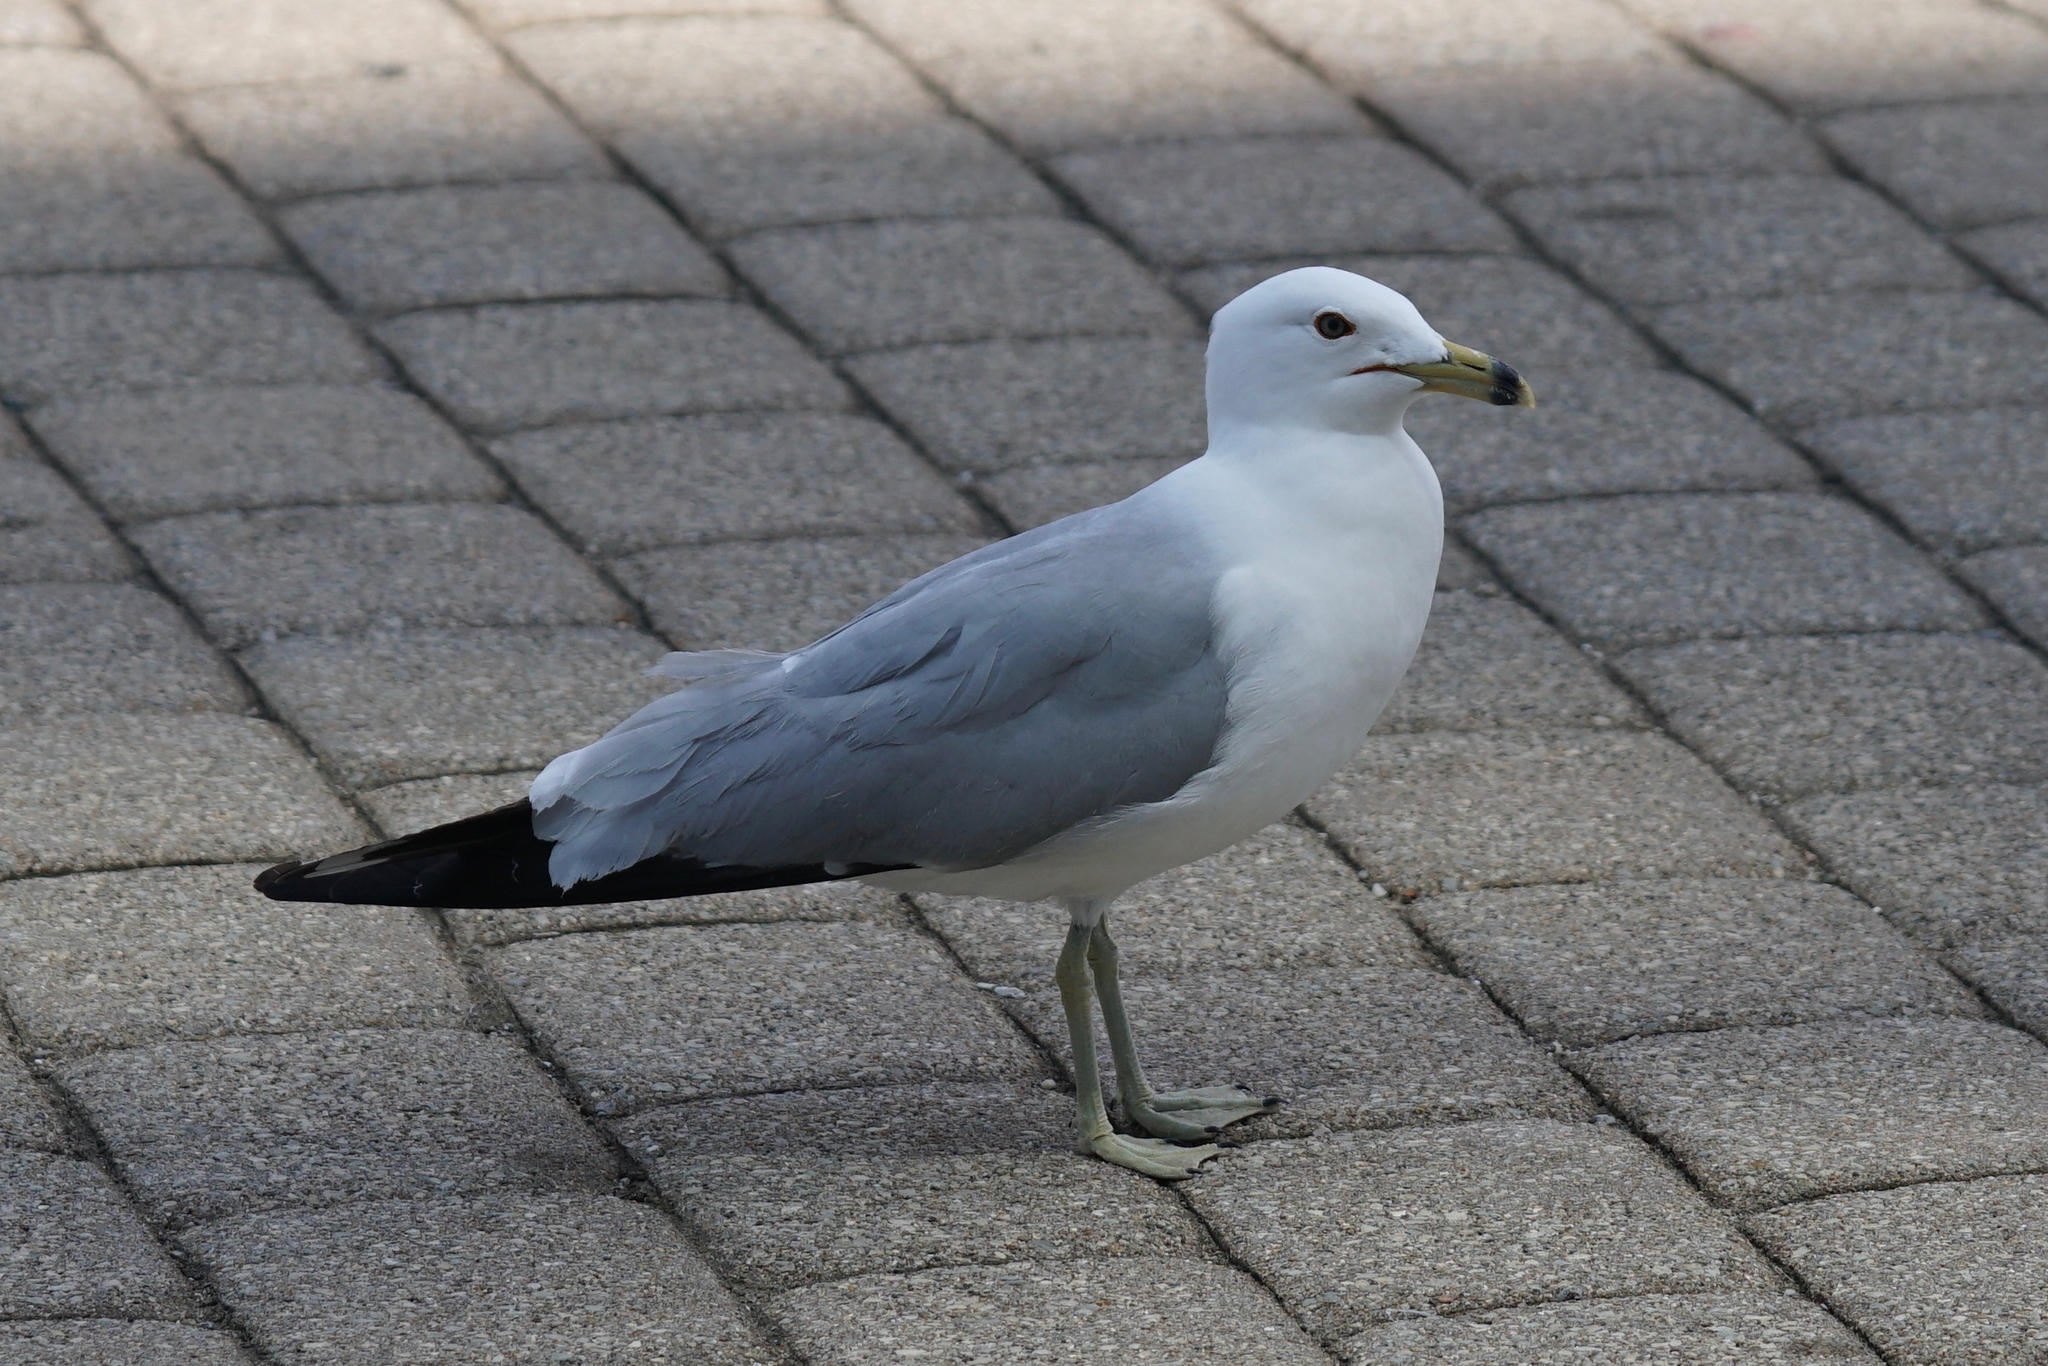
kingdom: Animalia
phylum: Chordata
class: Aves
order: Charadriiformes
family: Laridae
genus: Larus
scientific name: Larus delawarensis
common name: Ring-billed gull
